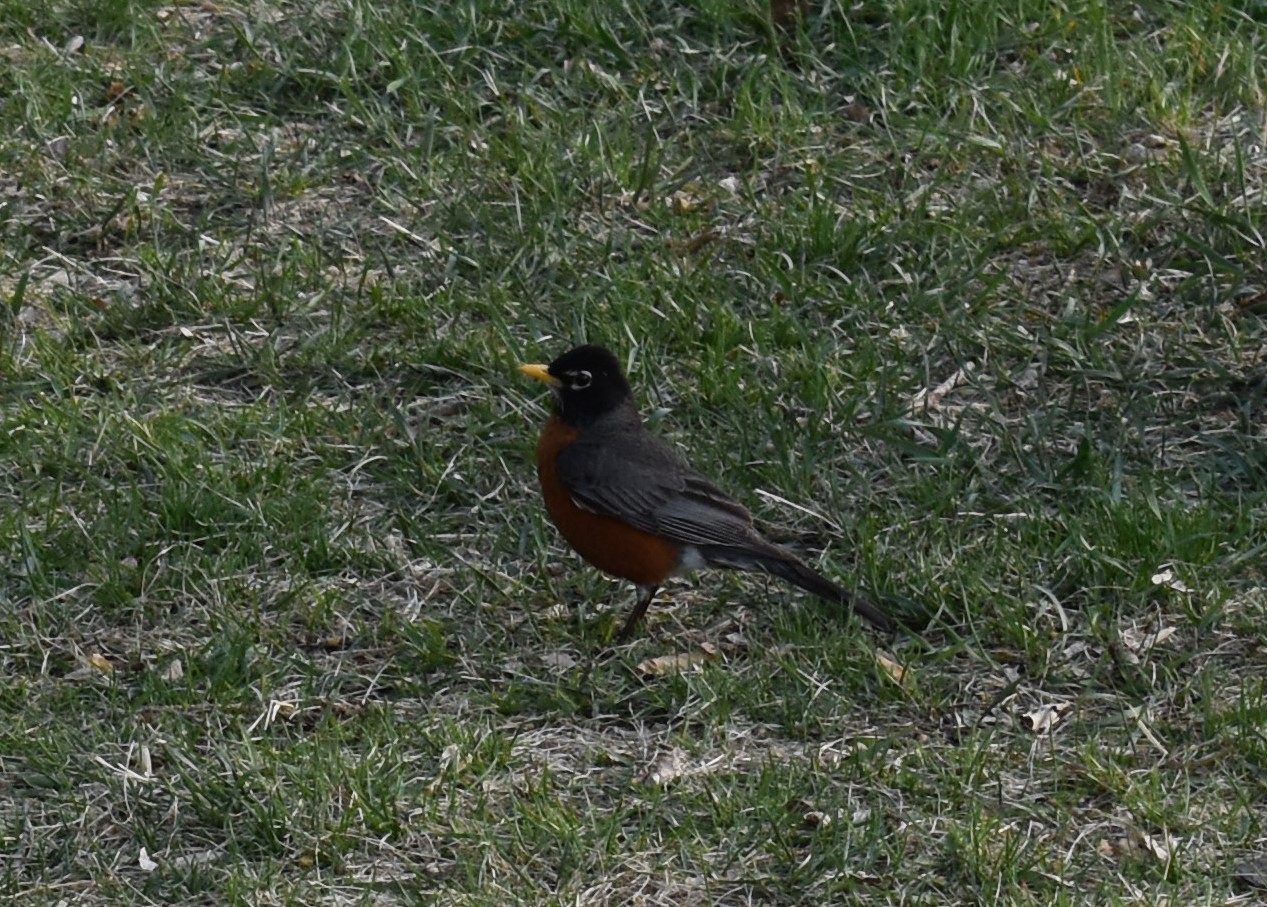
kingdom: Animalia
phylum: Chordata
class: Aves
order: Passeriformes
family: Turdidae
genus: Turdus
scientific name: Turdus migratorius
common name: American robin
